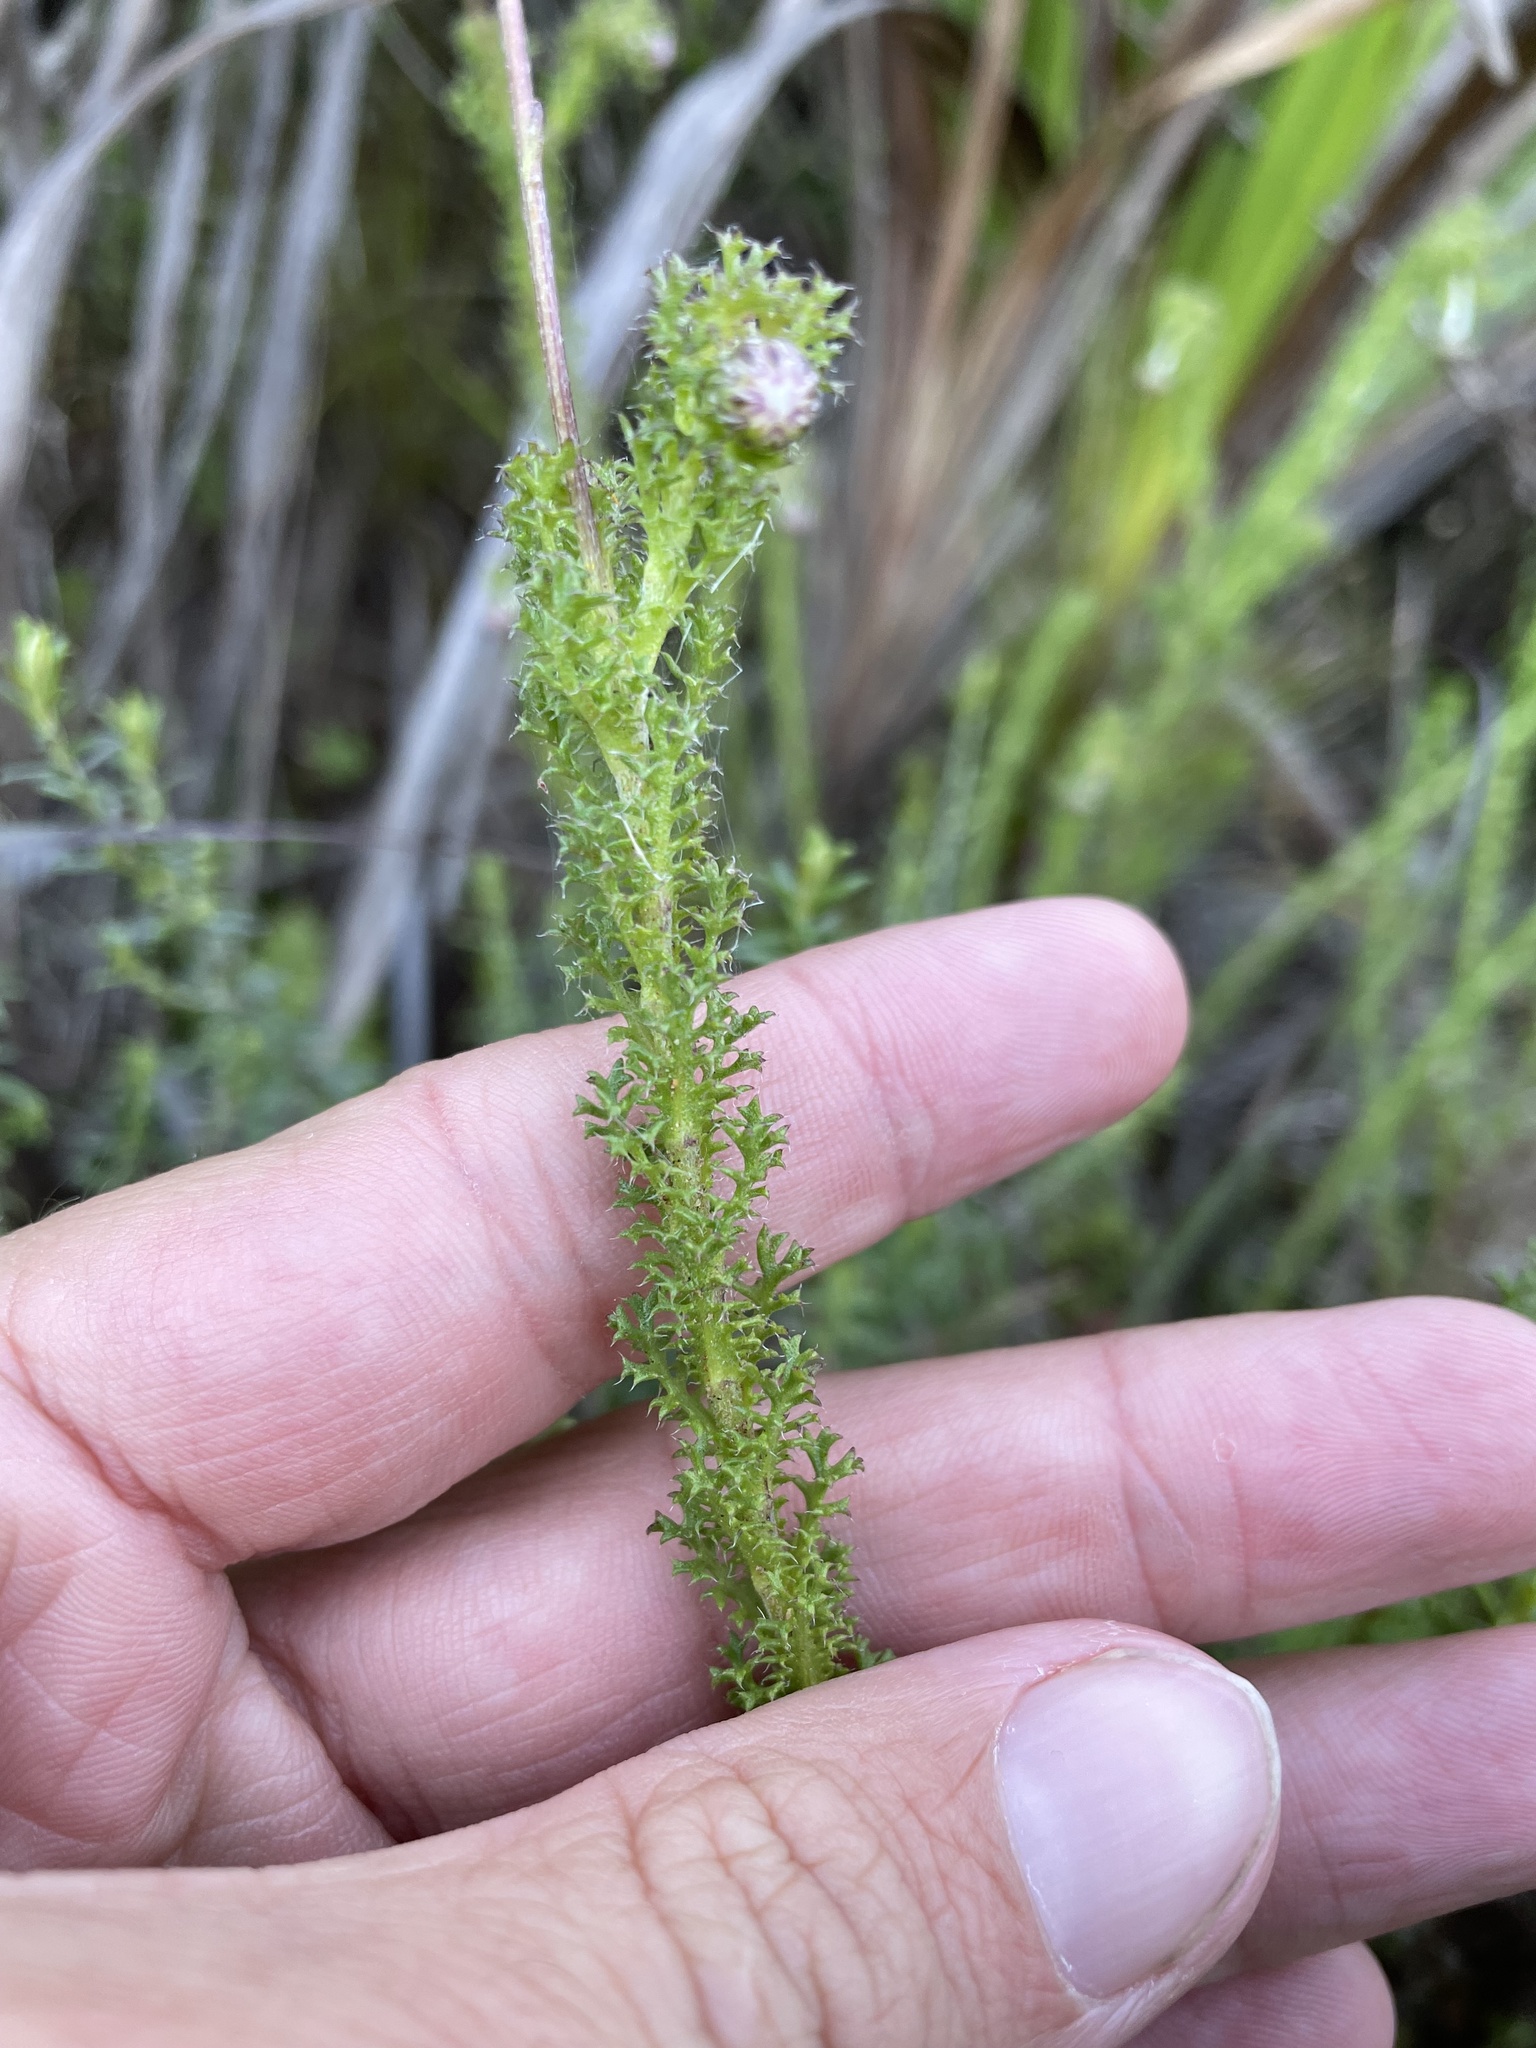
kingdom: Plantae
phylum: Tracheophyta
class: Magnoliopsida
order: Asterales
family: Asteraceae
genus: Ursinia
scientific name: Ursinia dentata
